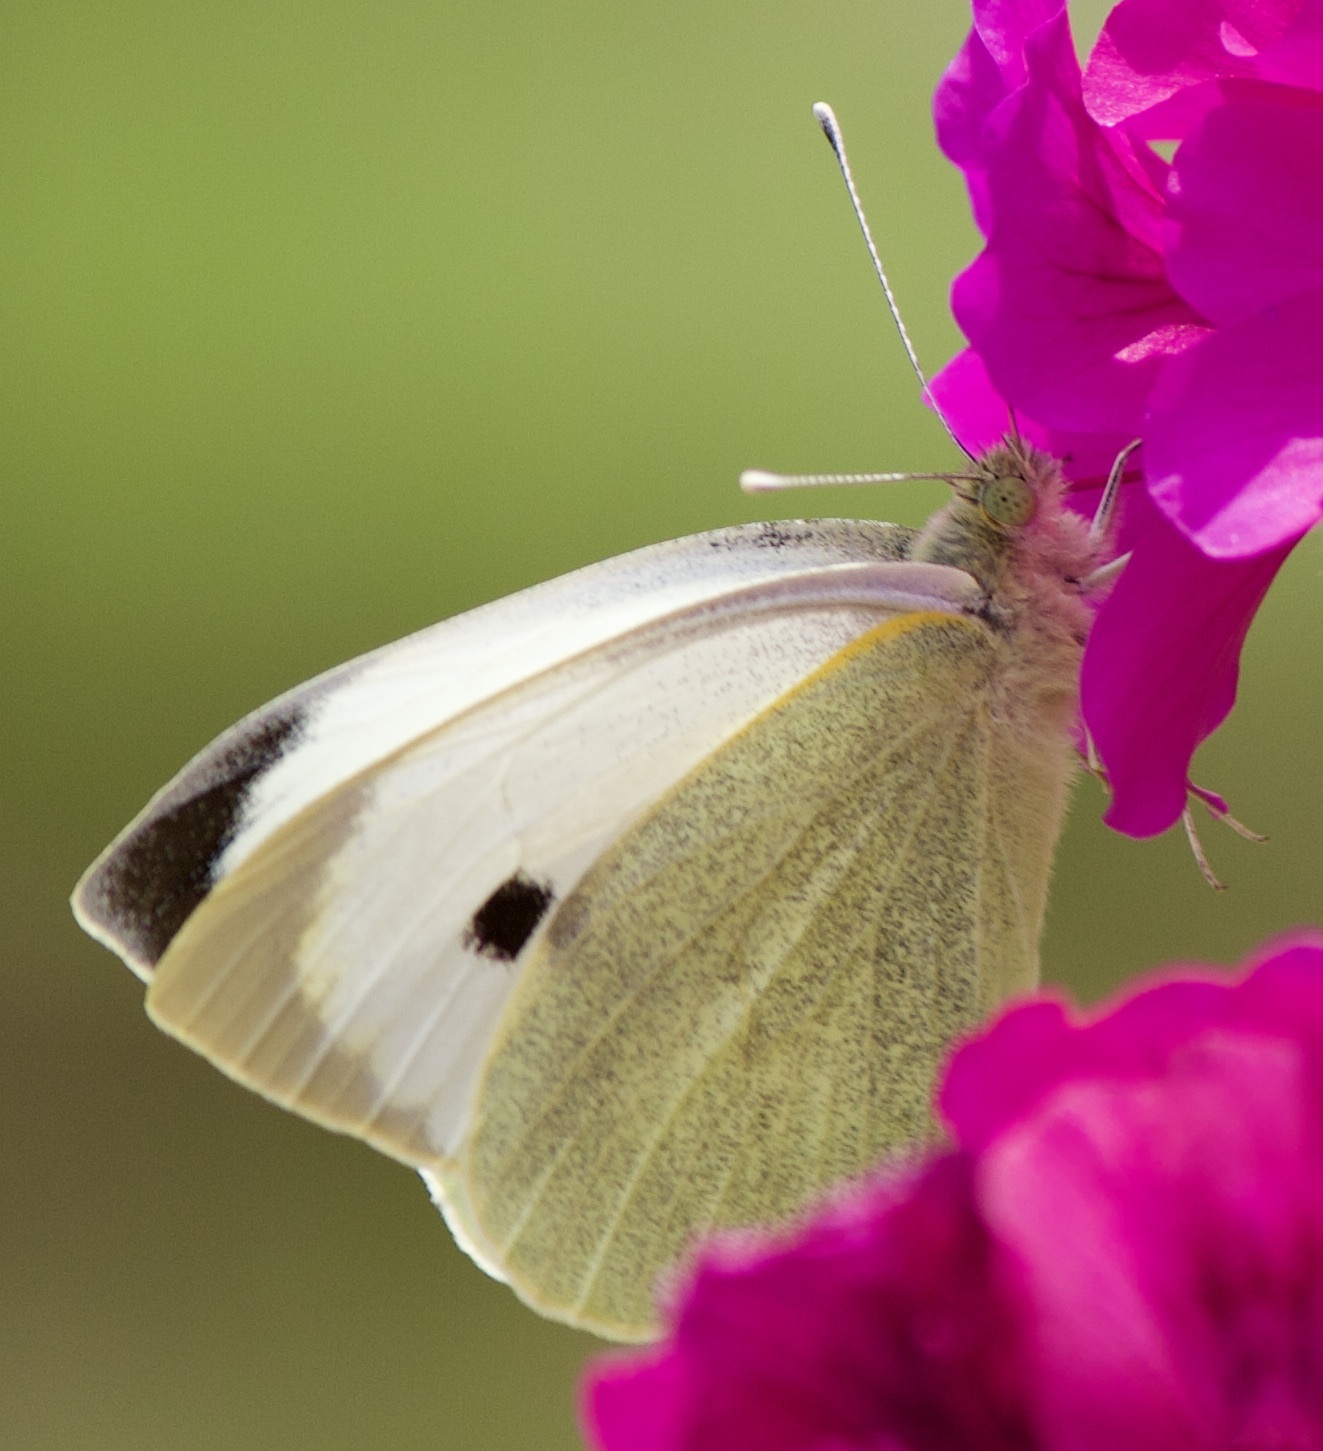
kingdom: Animalia
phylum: Arthropoda
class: Insecta
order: Lepidoptera
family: Pieridae
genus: Pieris
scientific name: Pieris brassicae
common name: Large white
